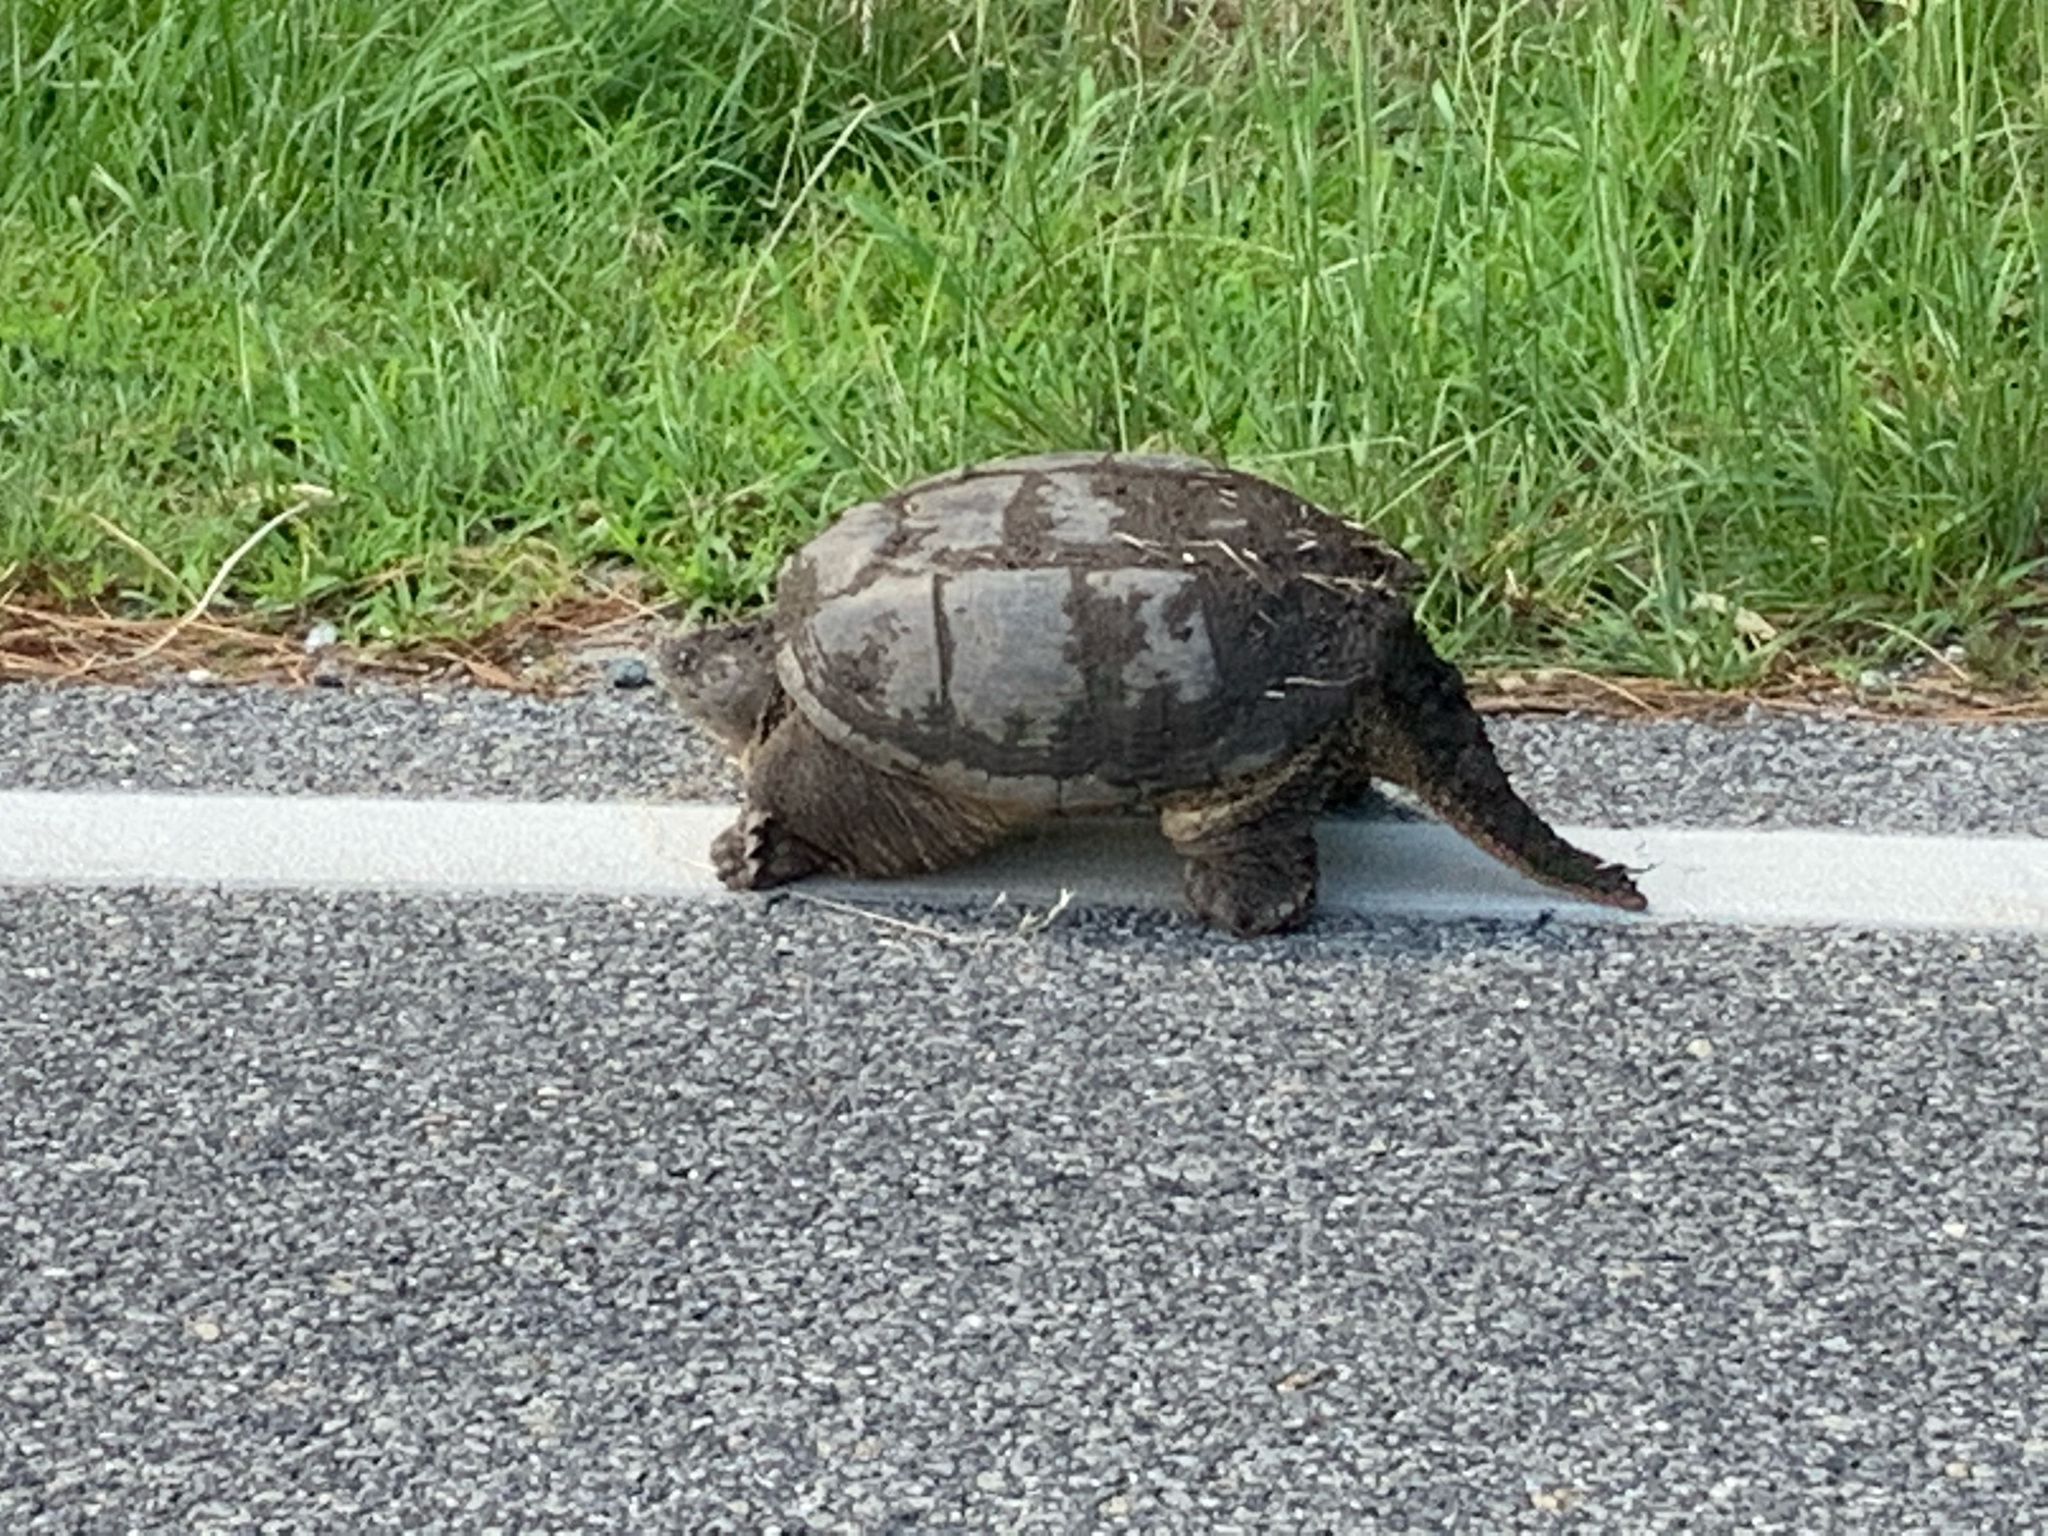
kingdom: Animalia
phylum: Chordata
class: Testudines
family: Chelydridae
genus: Chelydra
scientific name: Chelydra serpentina
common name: Common snapping turtle
